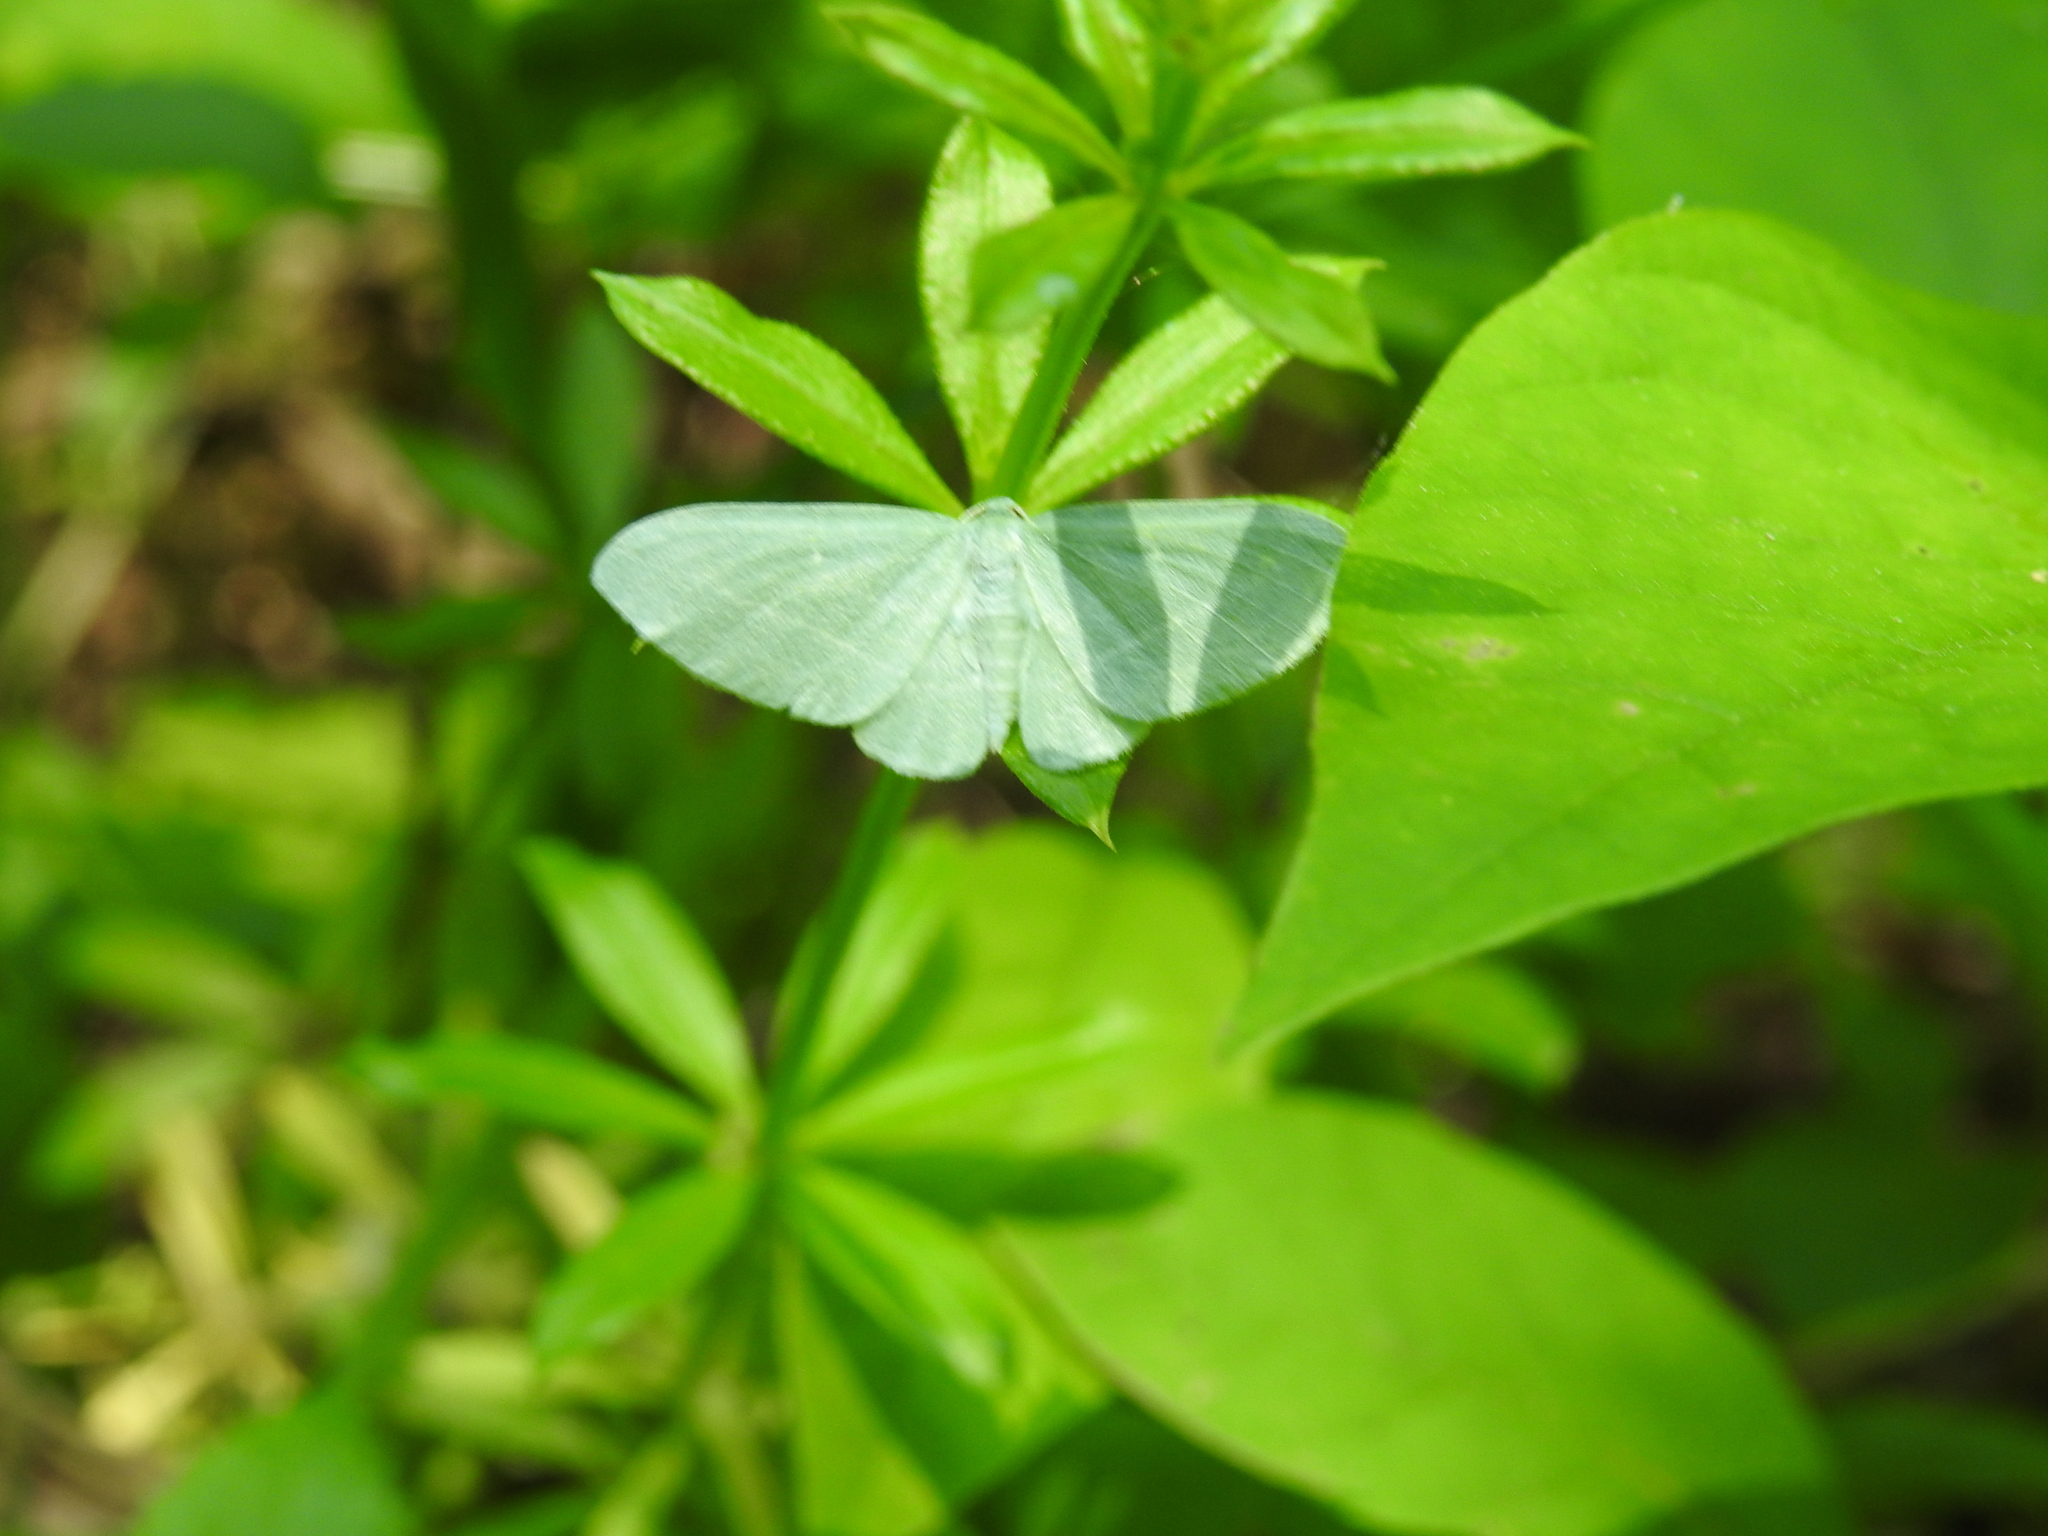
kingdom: Animalia
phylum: Arthropoda
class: Insecta
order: Lepidoptera
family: Geometridae
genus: Dyspteris
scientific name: Dyspteris abortivaria
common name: Bad-wing
